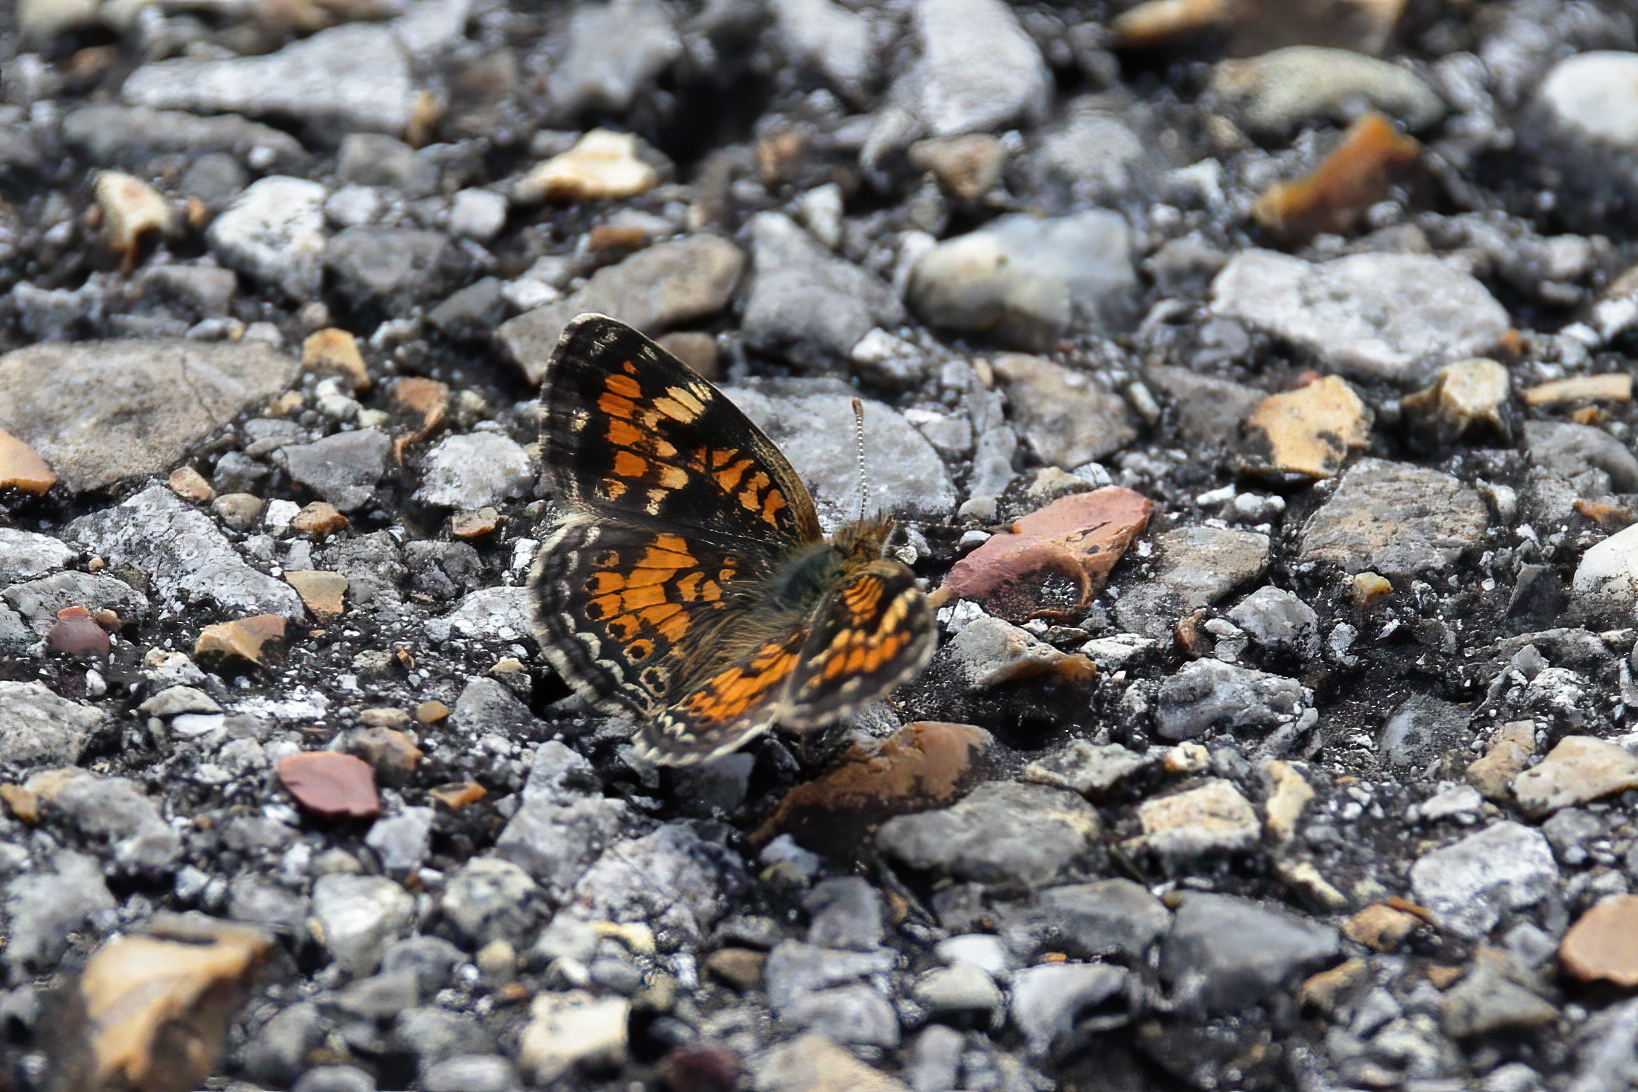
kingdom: Animalia
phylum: Arthropoda
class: Insecta
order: Lepidoptera
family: Nymphalidae
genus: Phyciodes
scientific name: Phyciodes phaon
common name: Phaon crescent
